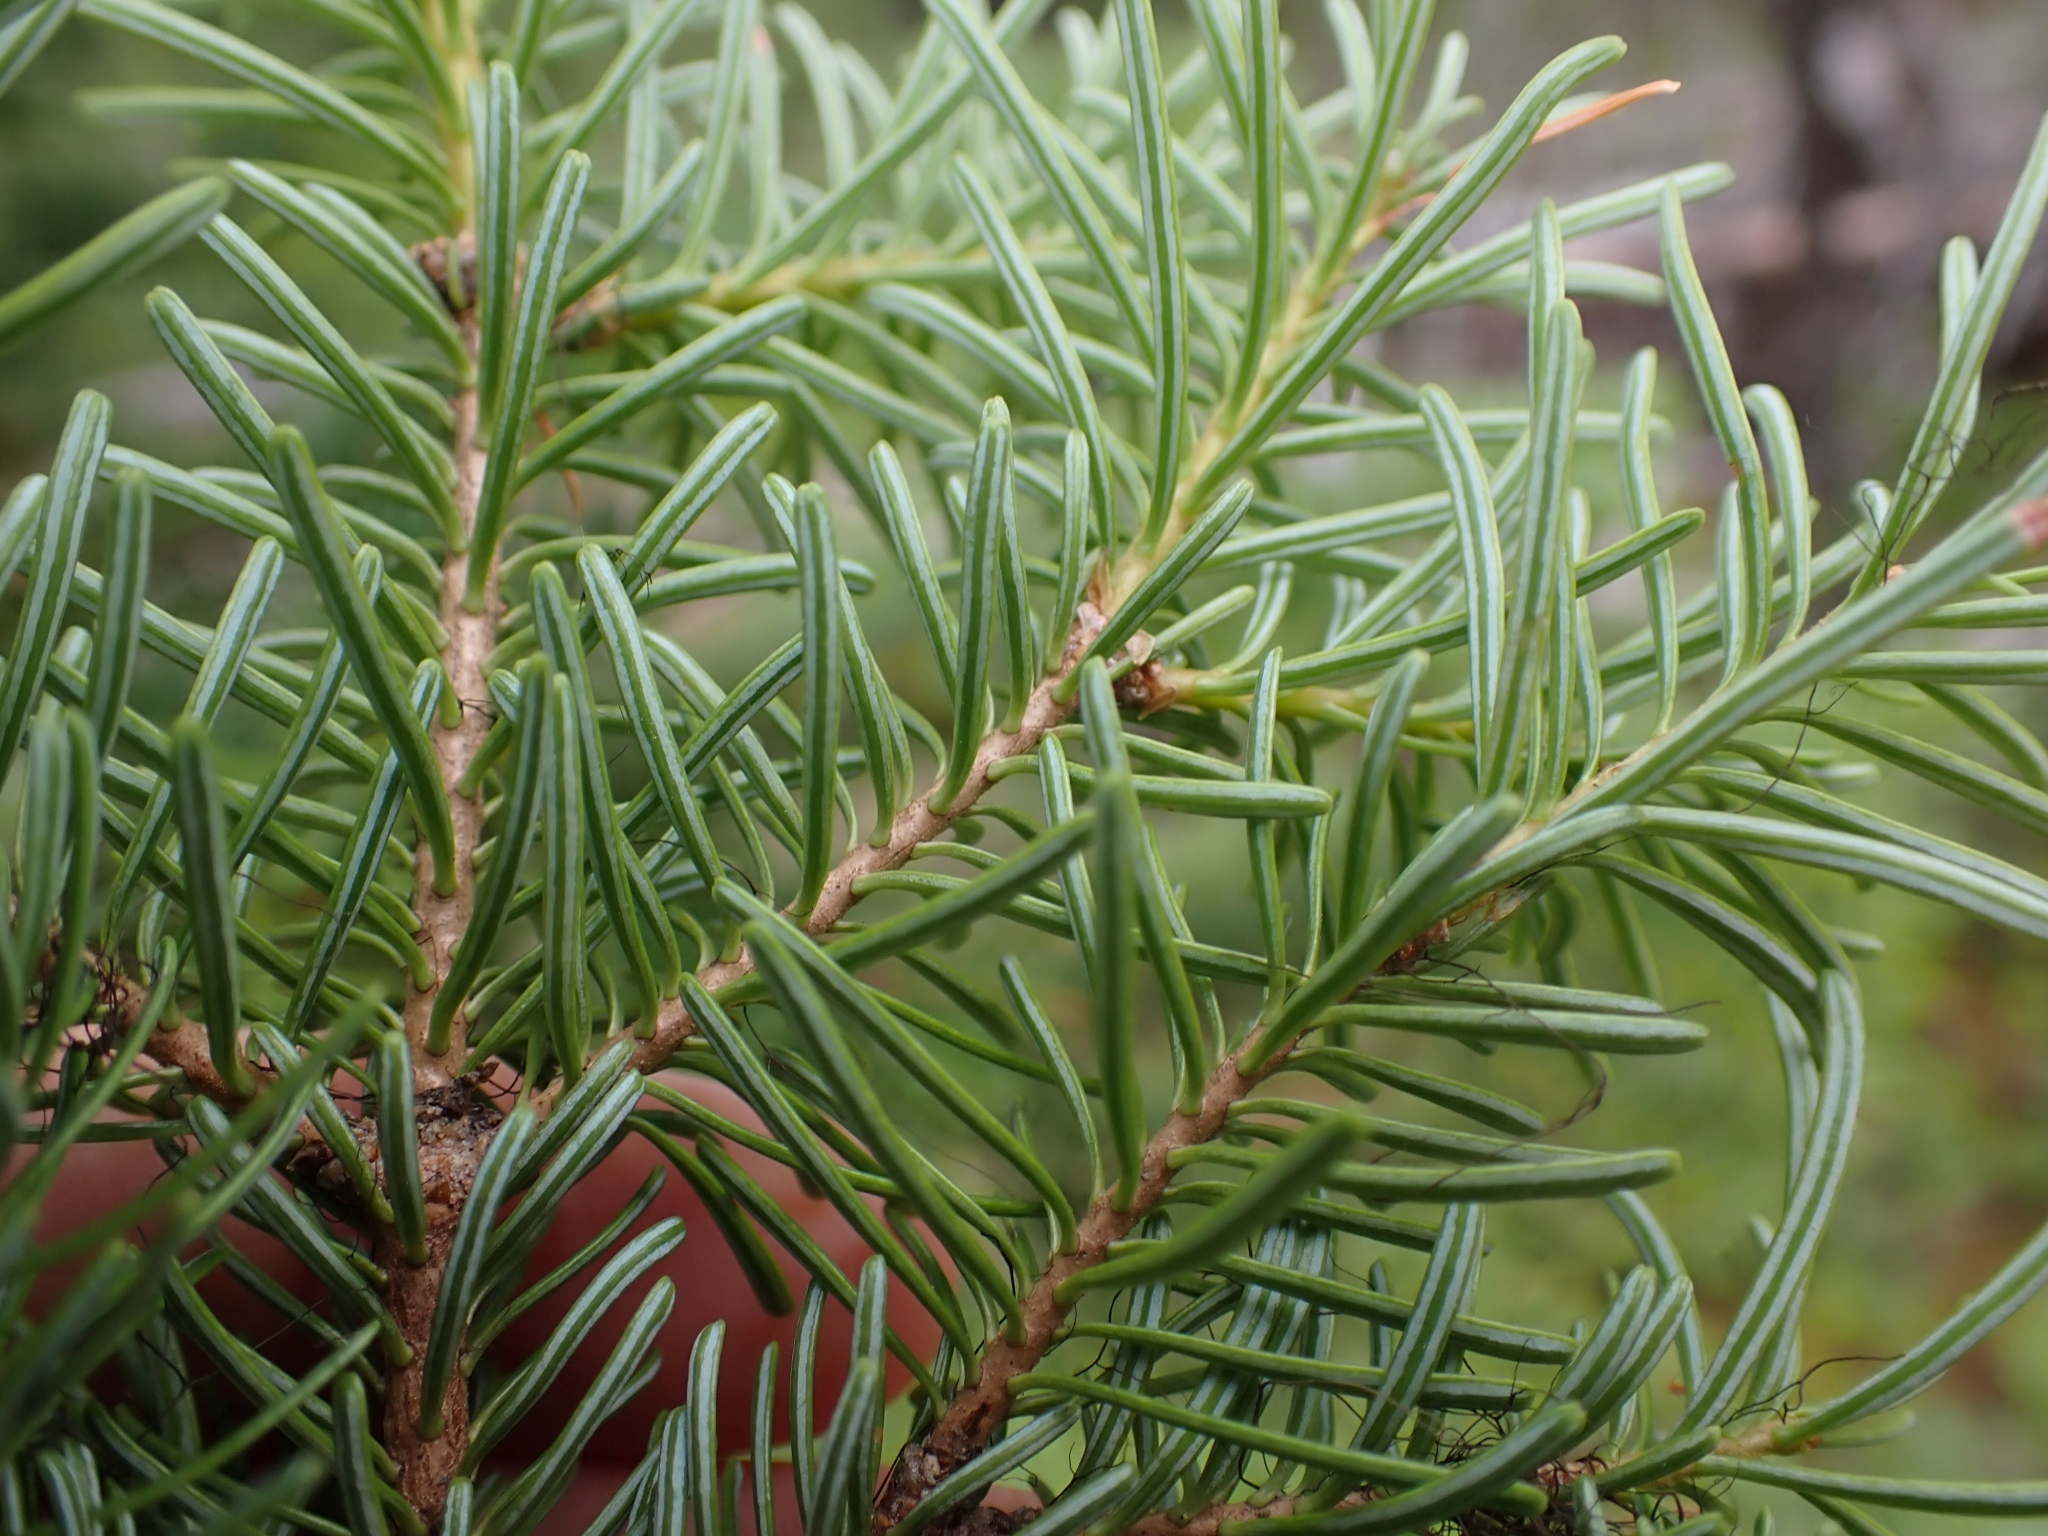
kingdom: Plantae
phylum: Tracheophyta
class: Pinopsida
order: Pinales
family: Pinaceae
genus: Abies
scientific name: Abies lasiocarpa
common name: Subalpine fir
